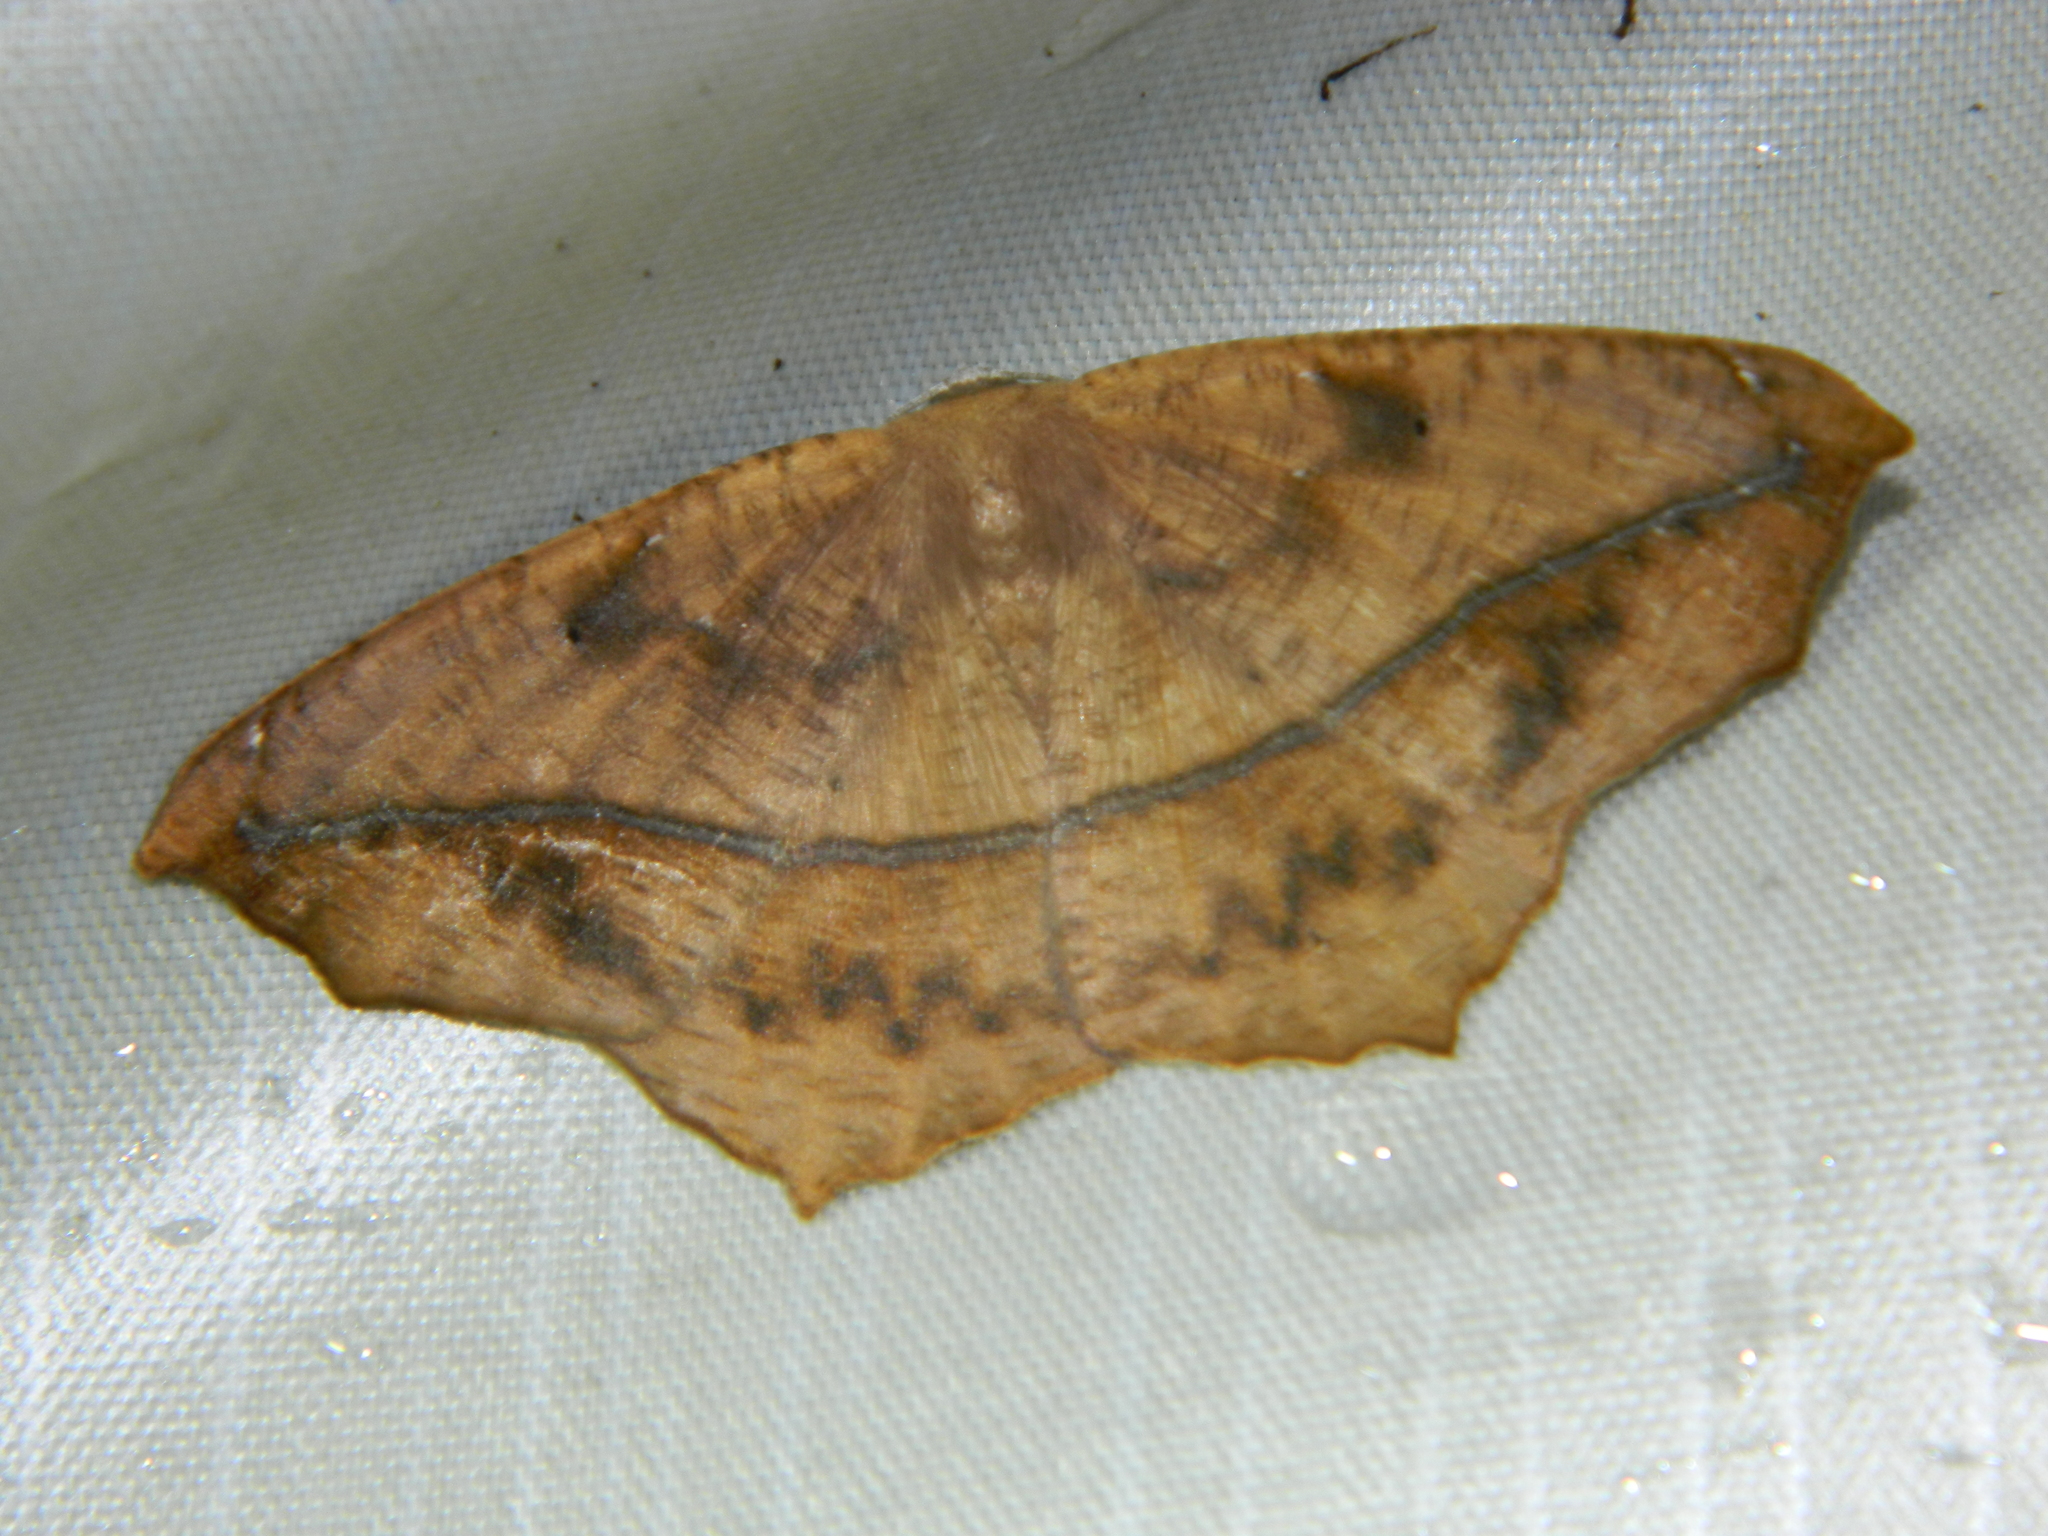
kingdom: Animalia
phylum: Arthropoda
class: Insecta
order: Lepidoptera
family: Geometridae
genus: Prochoerodes
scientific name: Prochoerodes lineola
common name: Large maple spanworm
